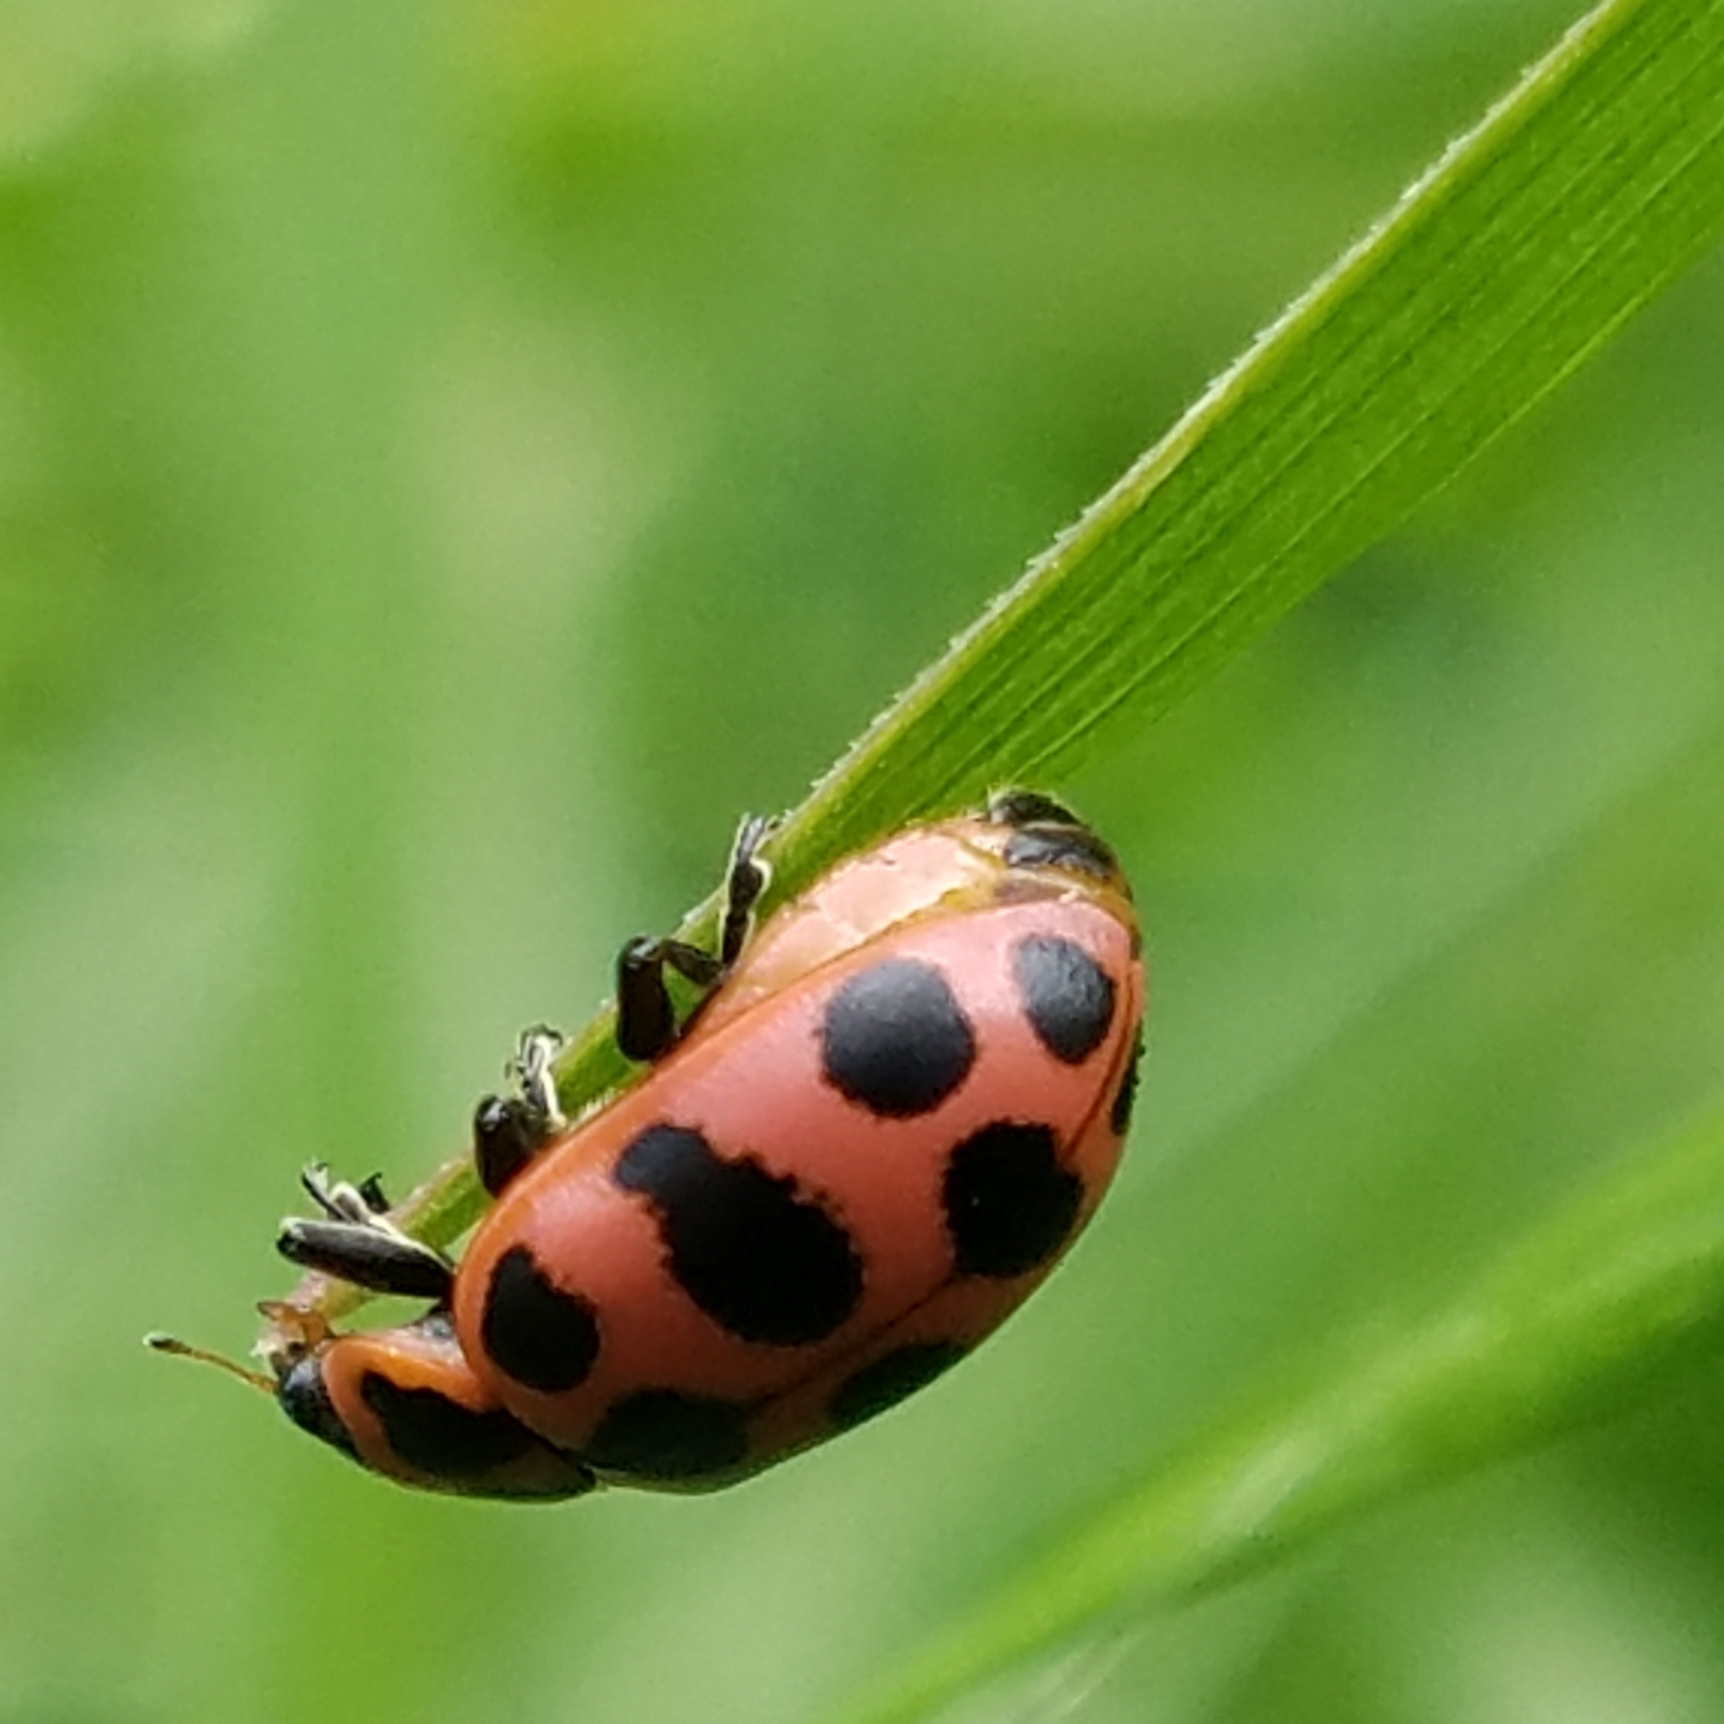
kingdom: Animalia
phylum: Arthropoda
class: Insecta
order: Coleoptera
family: Coccinellidae
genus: Coleomegilla
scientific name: Coleomegilla maculata
